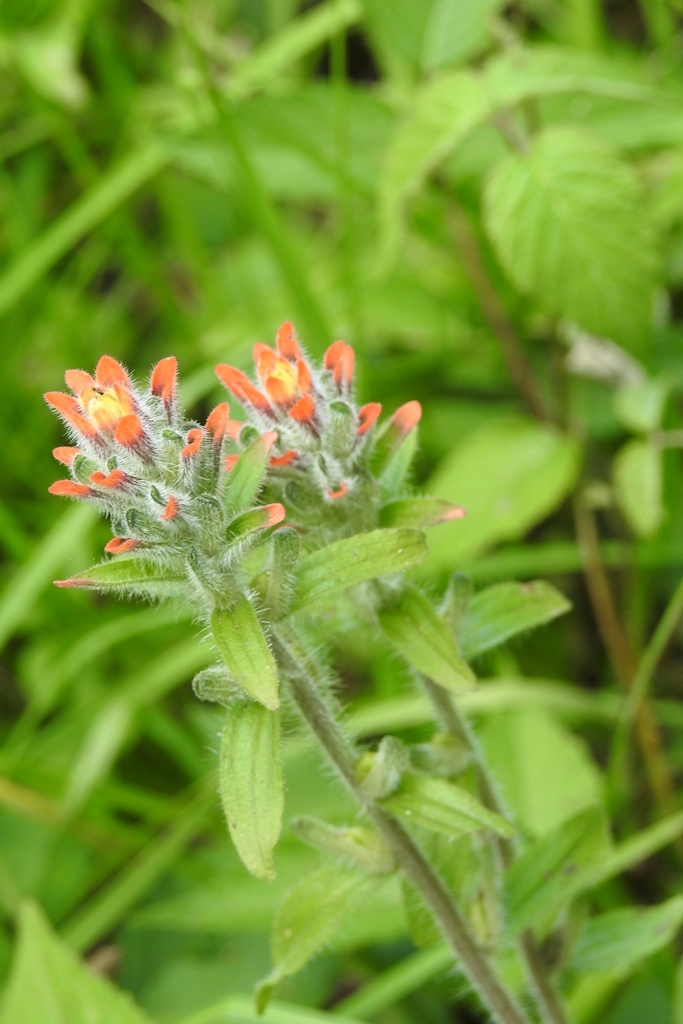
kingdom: Plantae
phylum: Tracheophyta
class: Magnoliopsida
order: Lamiales
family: Orobanchaceae
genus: Castilleja
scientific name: Castilleja arvensis
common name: Indian paintbrush
